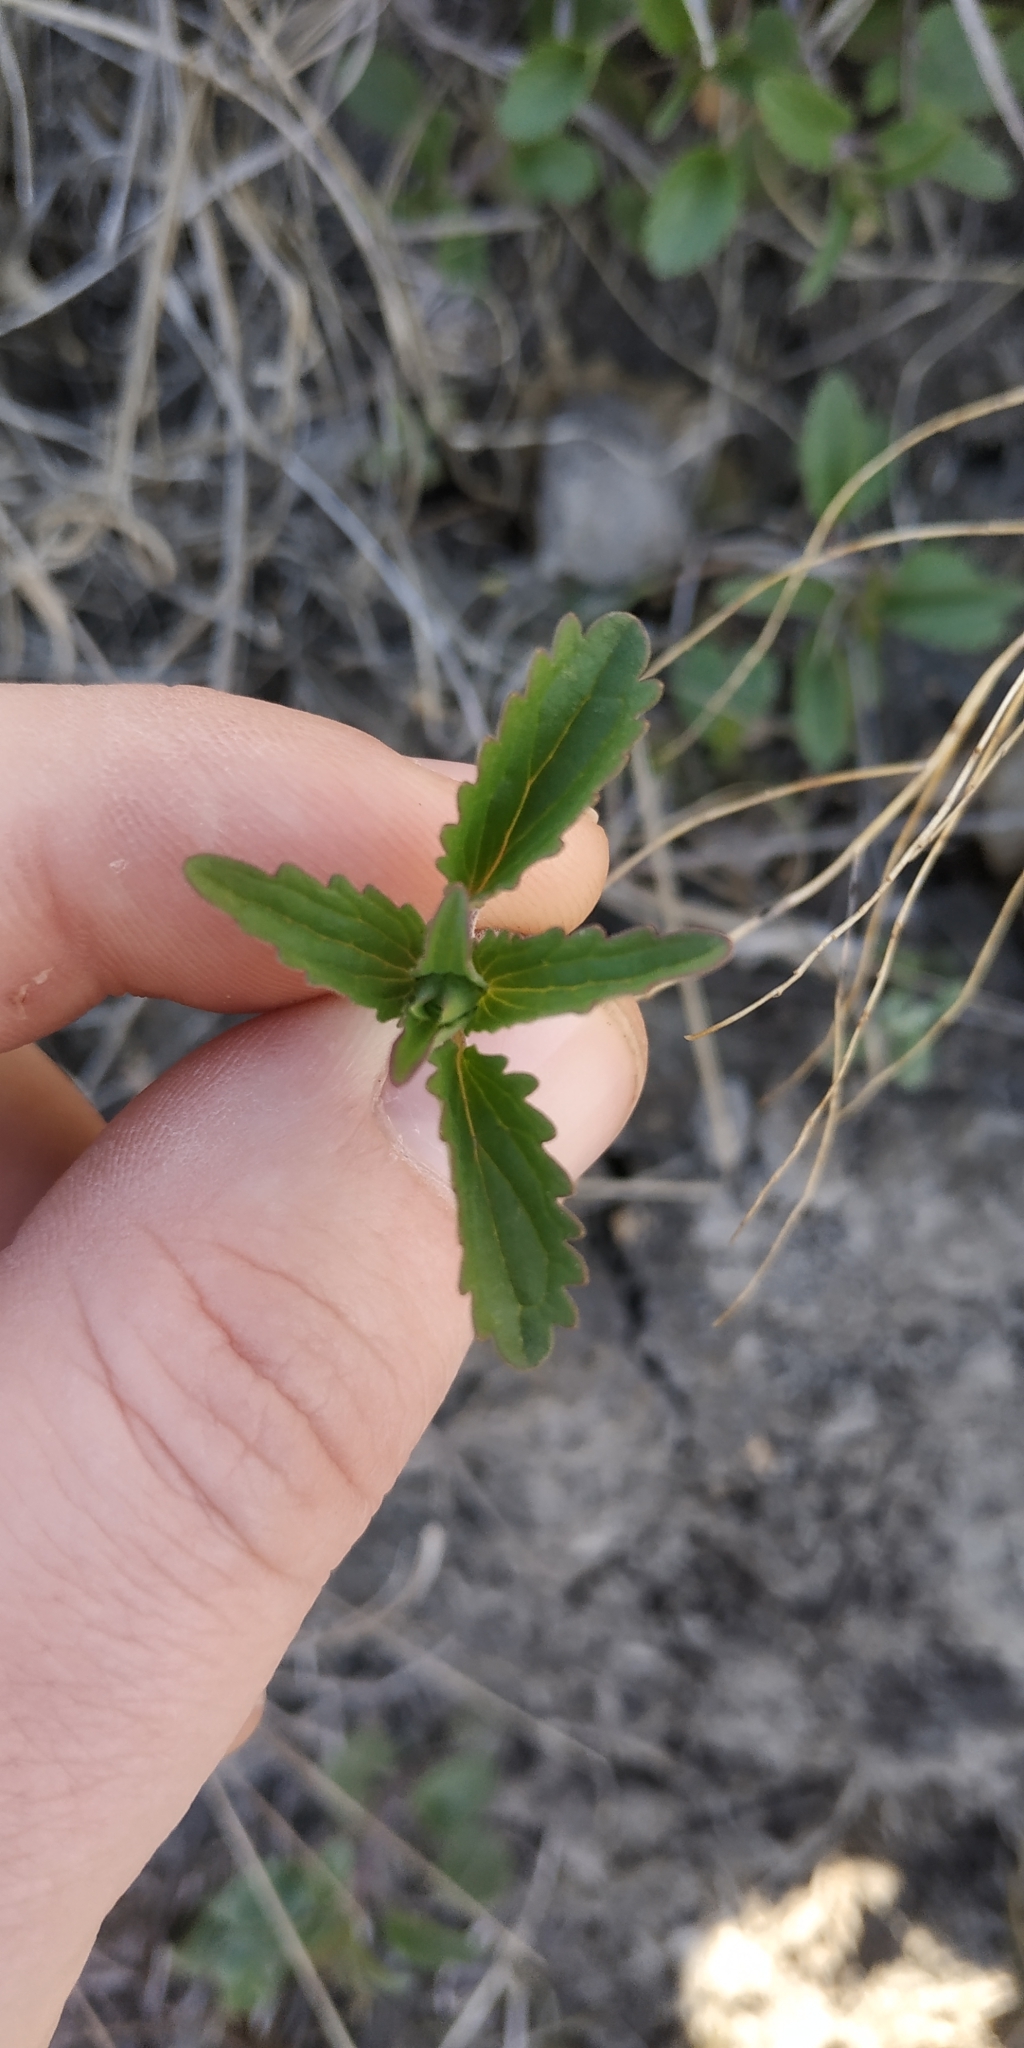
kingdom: Plantae
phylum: Tracheophyta
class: Magnoliopsida
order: Lamiales
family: Lamiaceae
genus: Dracocephalum
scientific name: Dracocephalum thymiflorum
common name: Thymeleaf dragonhead
